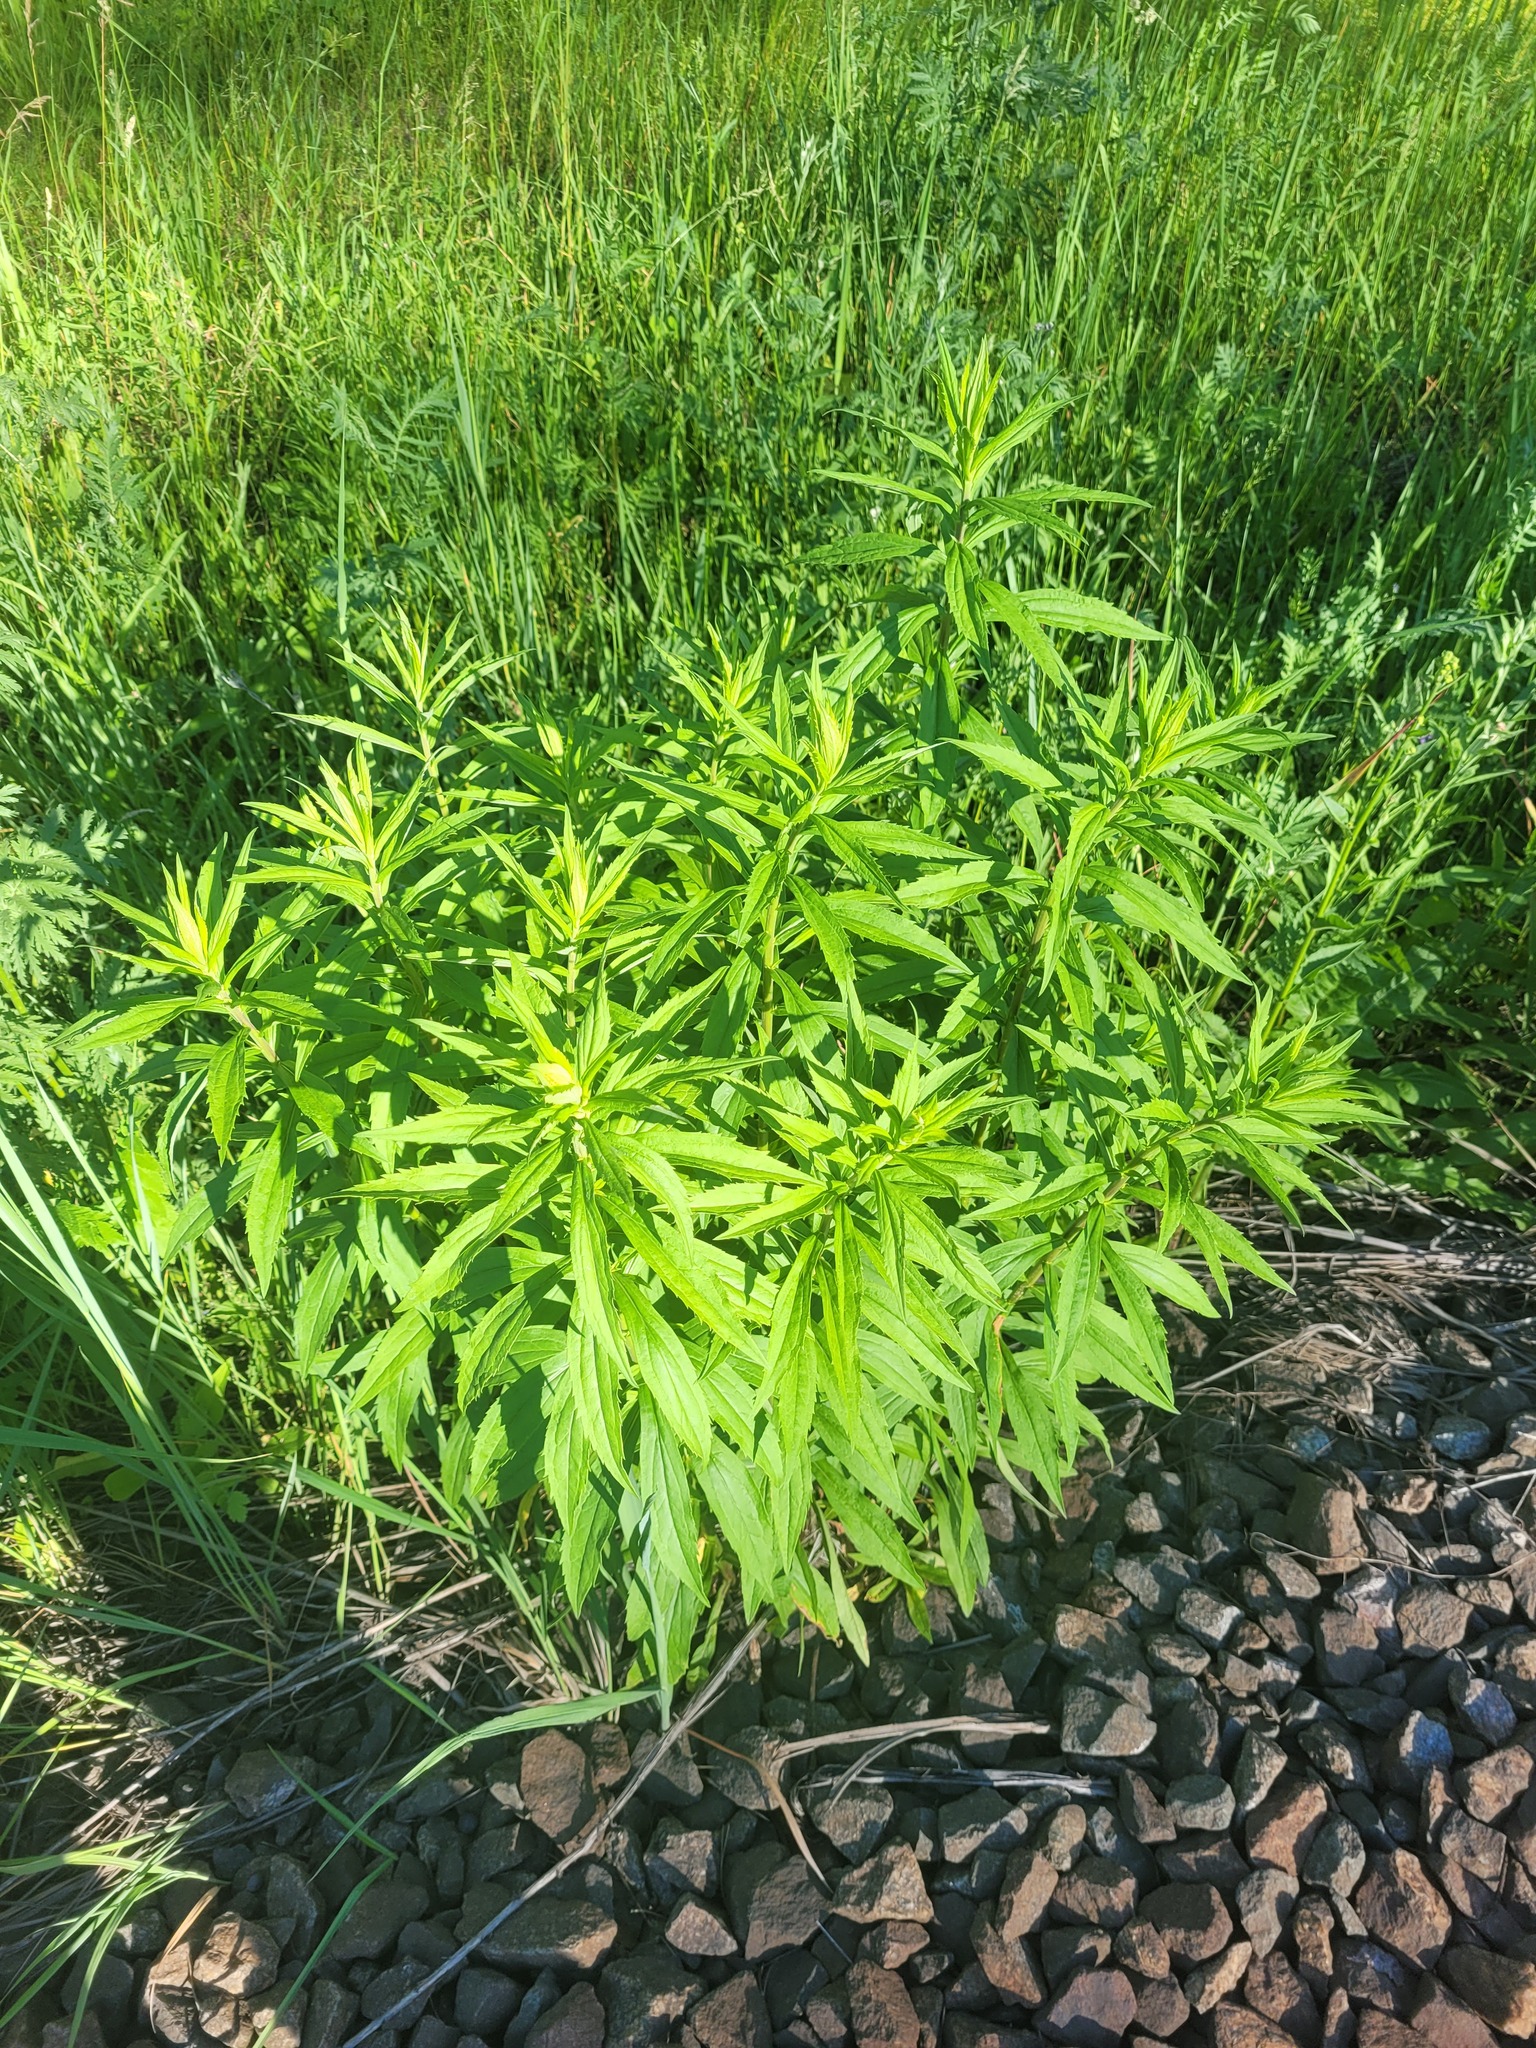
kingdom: Plantae
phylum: Tracheophyta
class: Magnoliopsida
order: Asterales
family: Asteraceae
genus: Solidago
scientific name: Solidago canadensis
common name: Canada goldenrod
